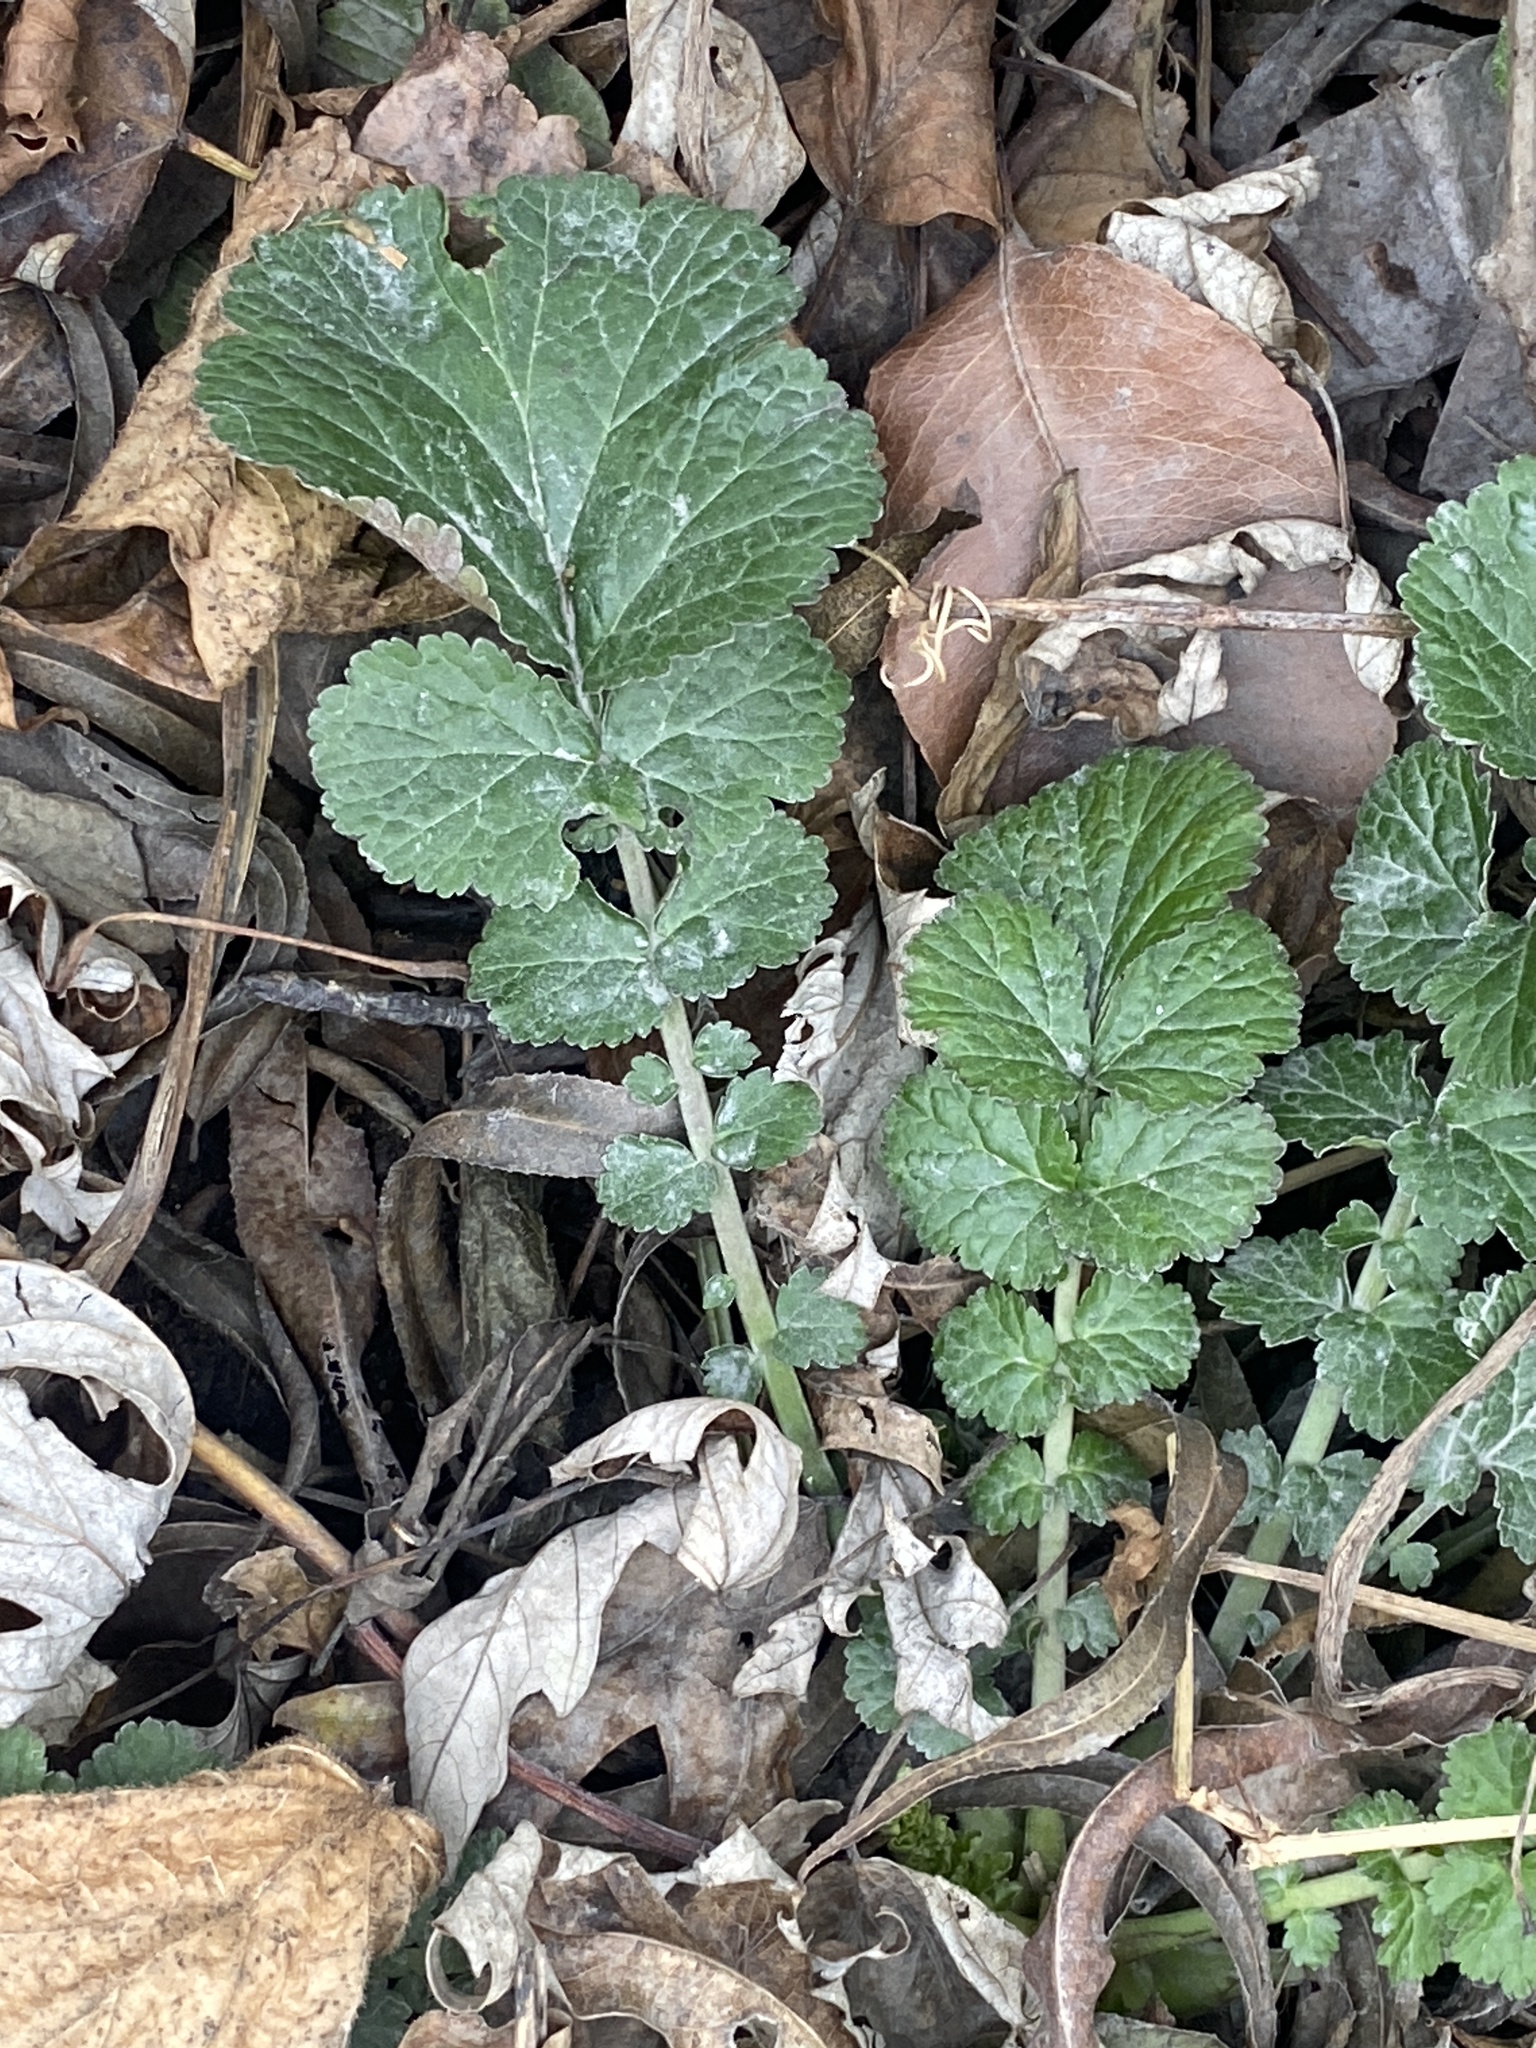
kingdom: Plantae
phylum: Tracheophyta
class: Magnoliopsida
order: Rosales
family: Rosaceae
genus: Geum
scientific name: Geum canadense
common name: White avens
